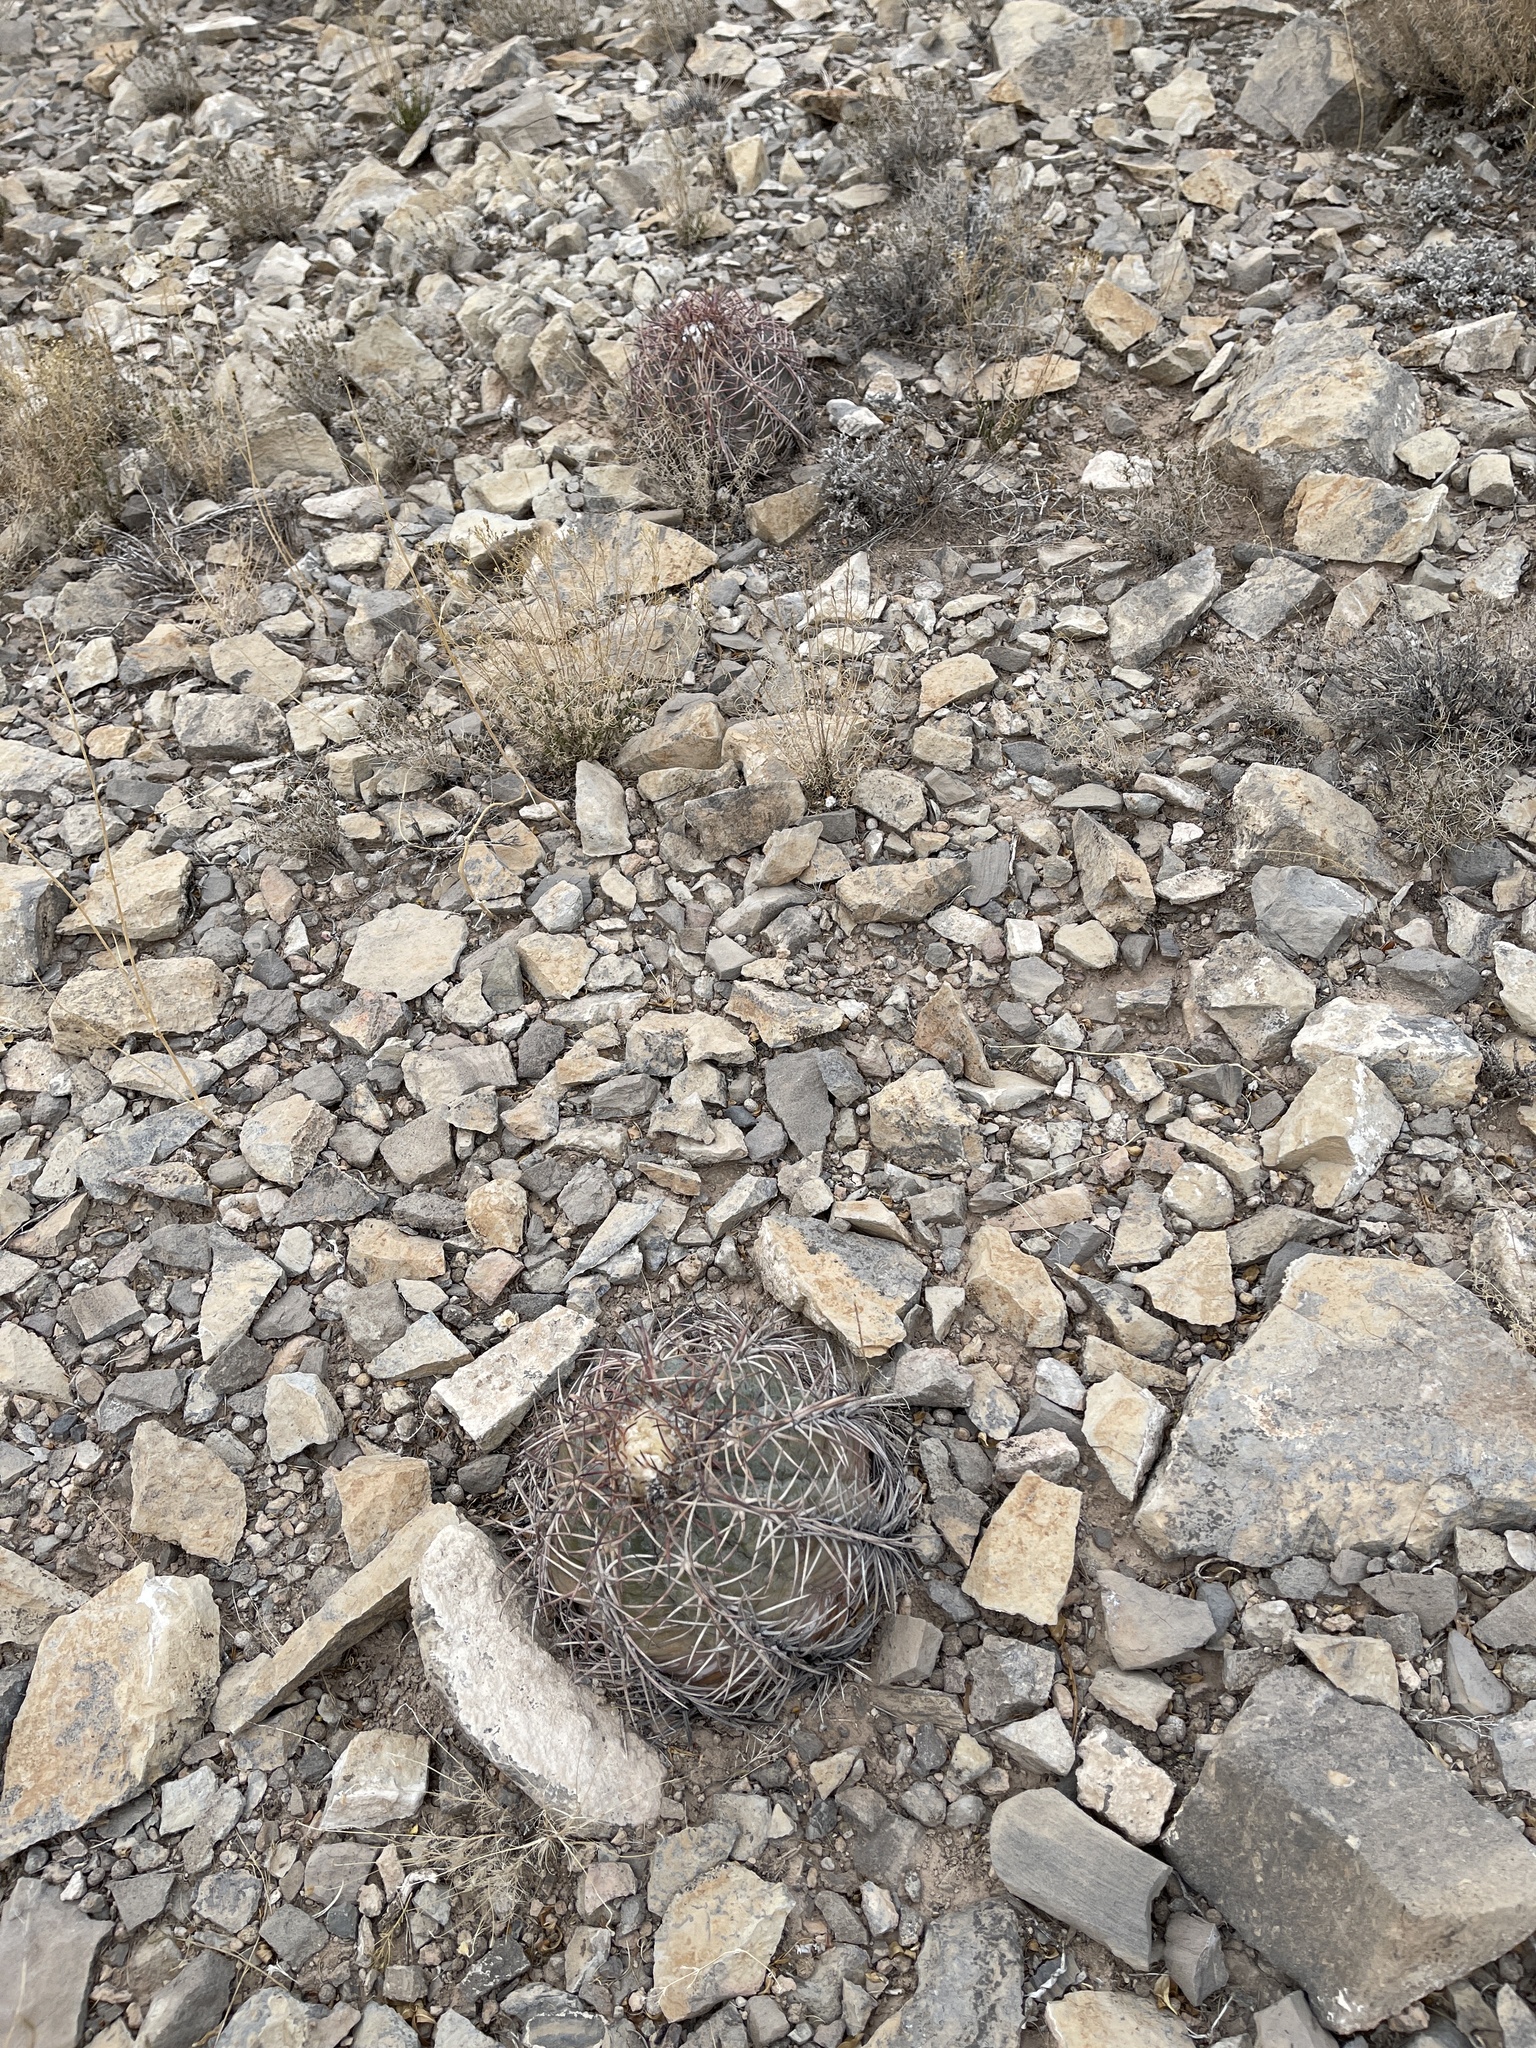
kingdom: Plantae
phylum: Tracheophyta
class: Magnoliopsida
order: Caryophyllales
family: Cactaceae
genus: Echinocactus
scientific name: Echinocactus horizonthalonius
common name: Devilshead
